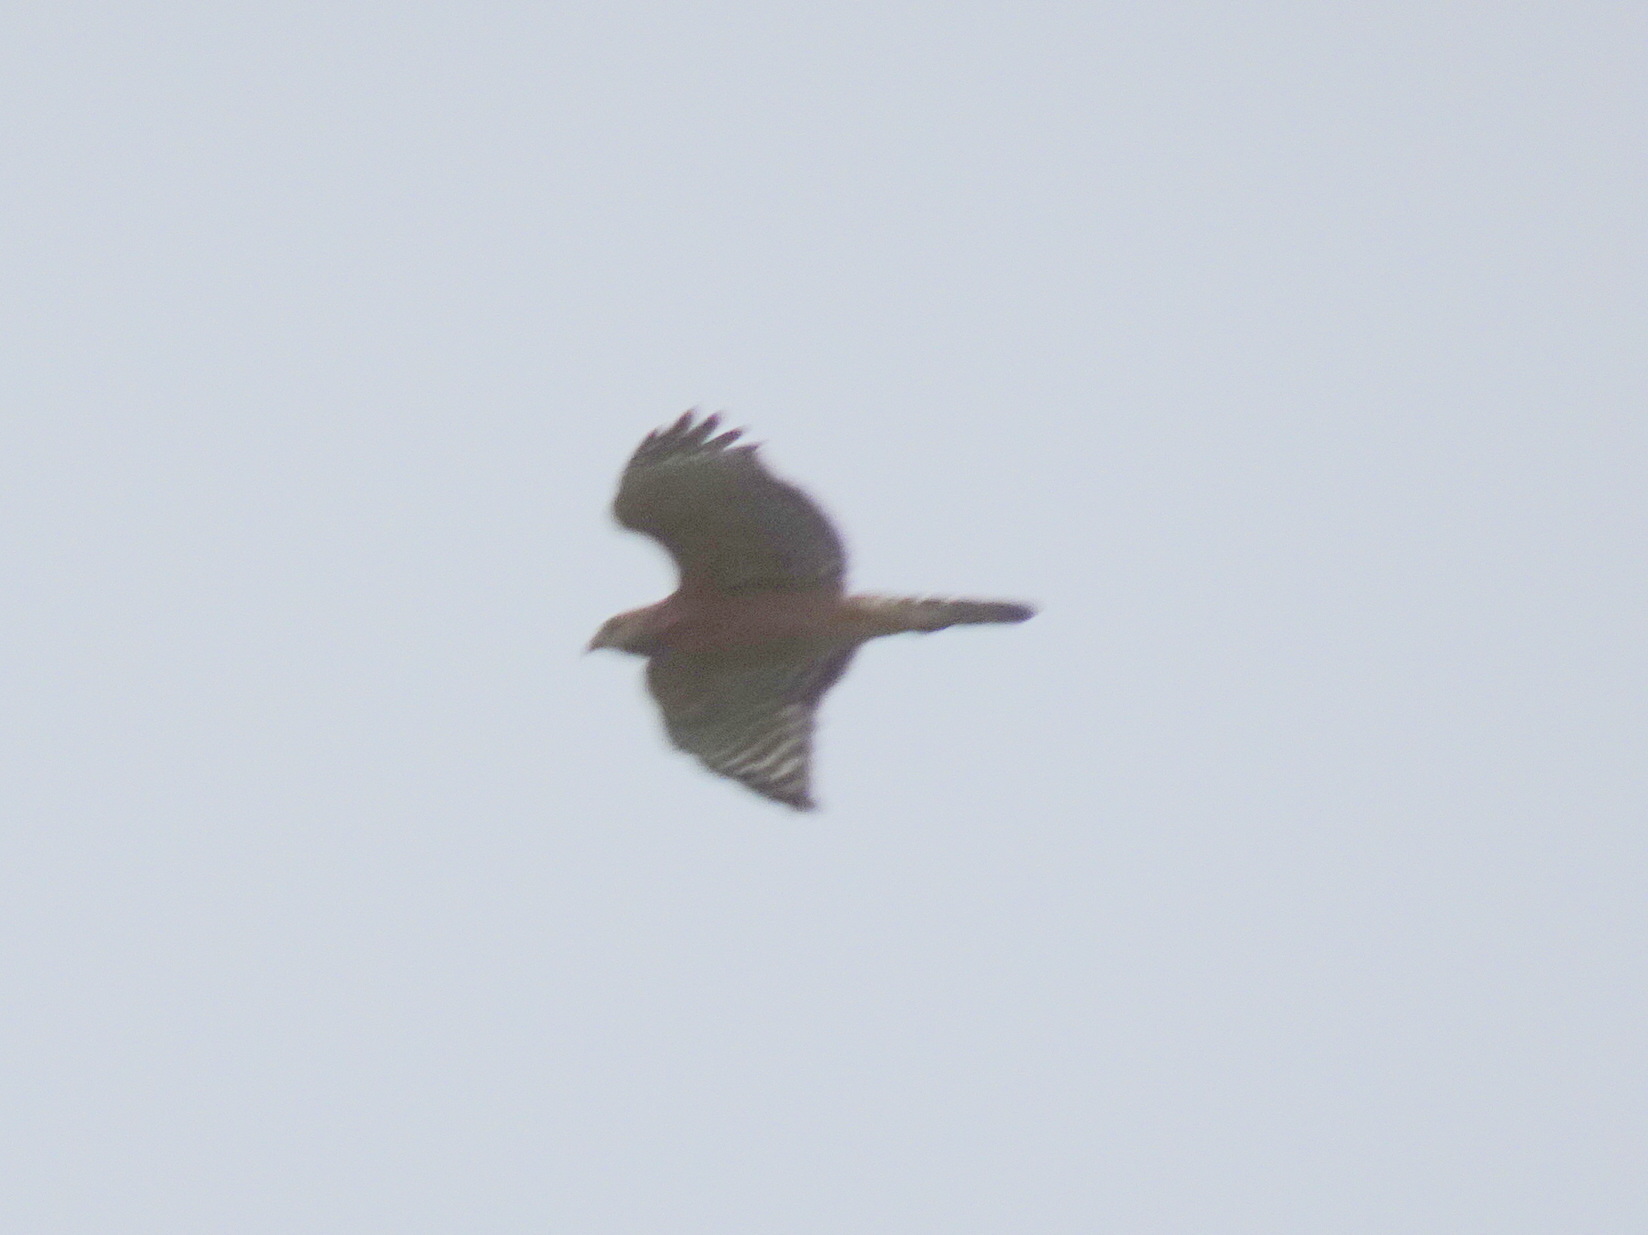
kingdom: Animalia
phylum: Chordata
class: Aves
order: Accipitriformes
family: Accipitridae
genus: Buteo
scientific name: Buteo lineatus
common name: Red-shouldered hawk
